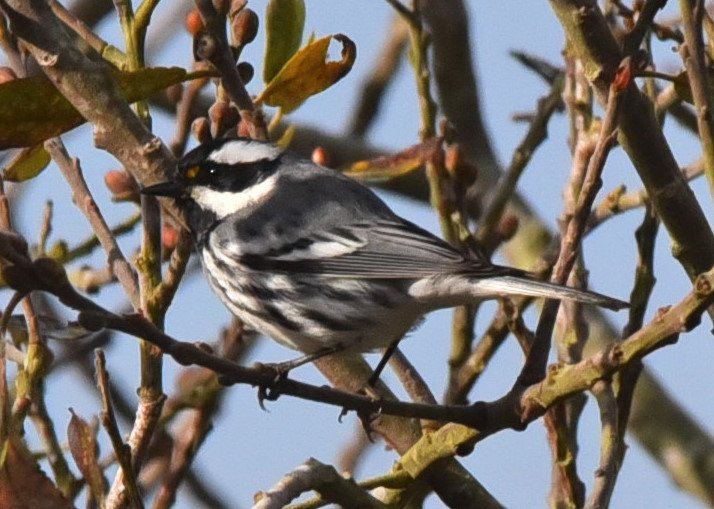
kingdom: Animalia
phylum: Chordata
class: Aves
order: Passeriformes
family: Parulidae
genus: Setophaga
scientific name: Setophaga nigrescens
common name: Black-throated gray warbler
